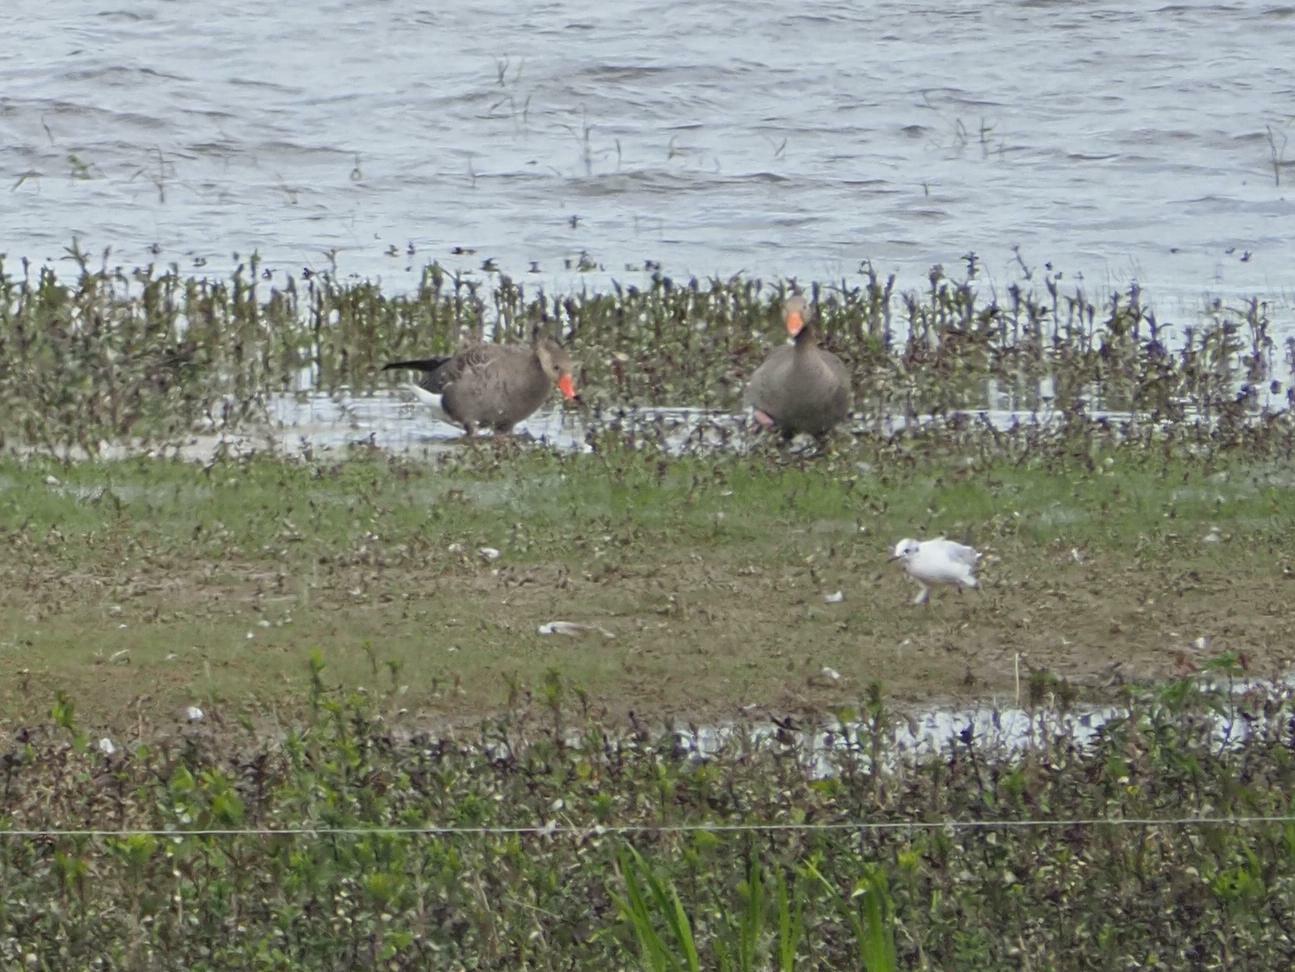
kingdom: Animalia
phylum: Chordata
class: Aves
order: Anseriformes
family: Anatidae
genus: Anser
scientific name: Anser anser
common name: Greylag goose
